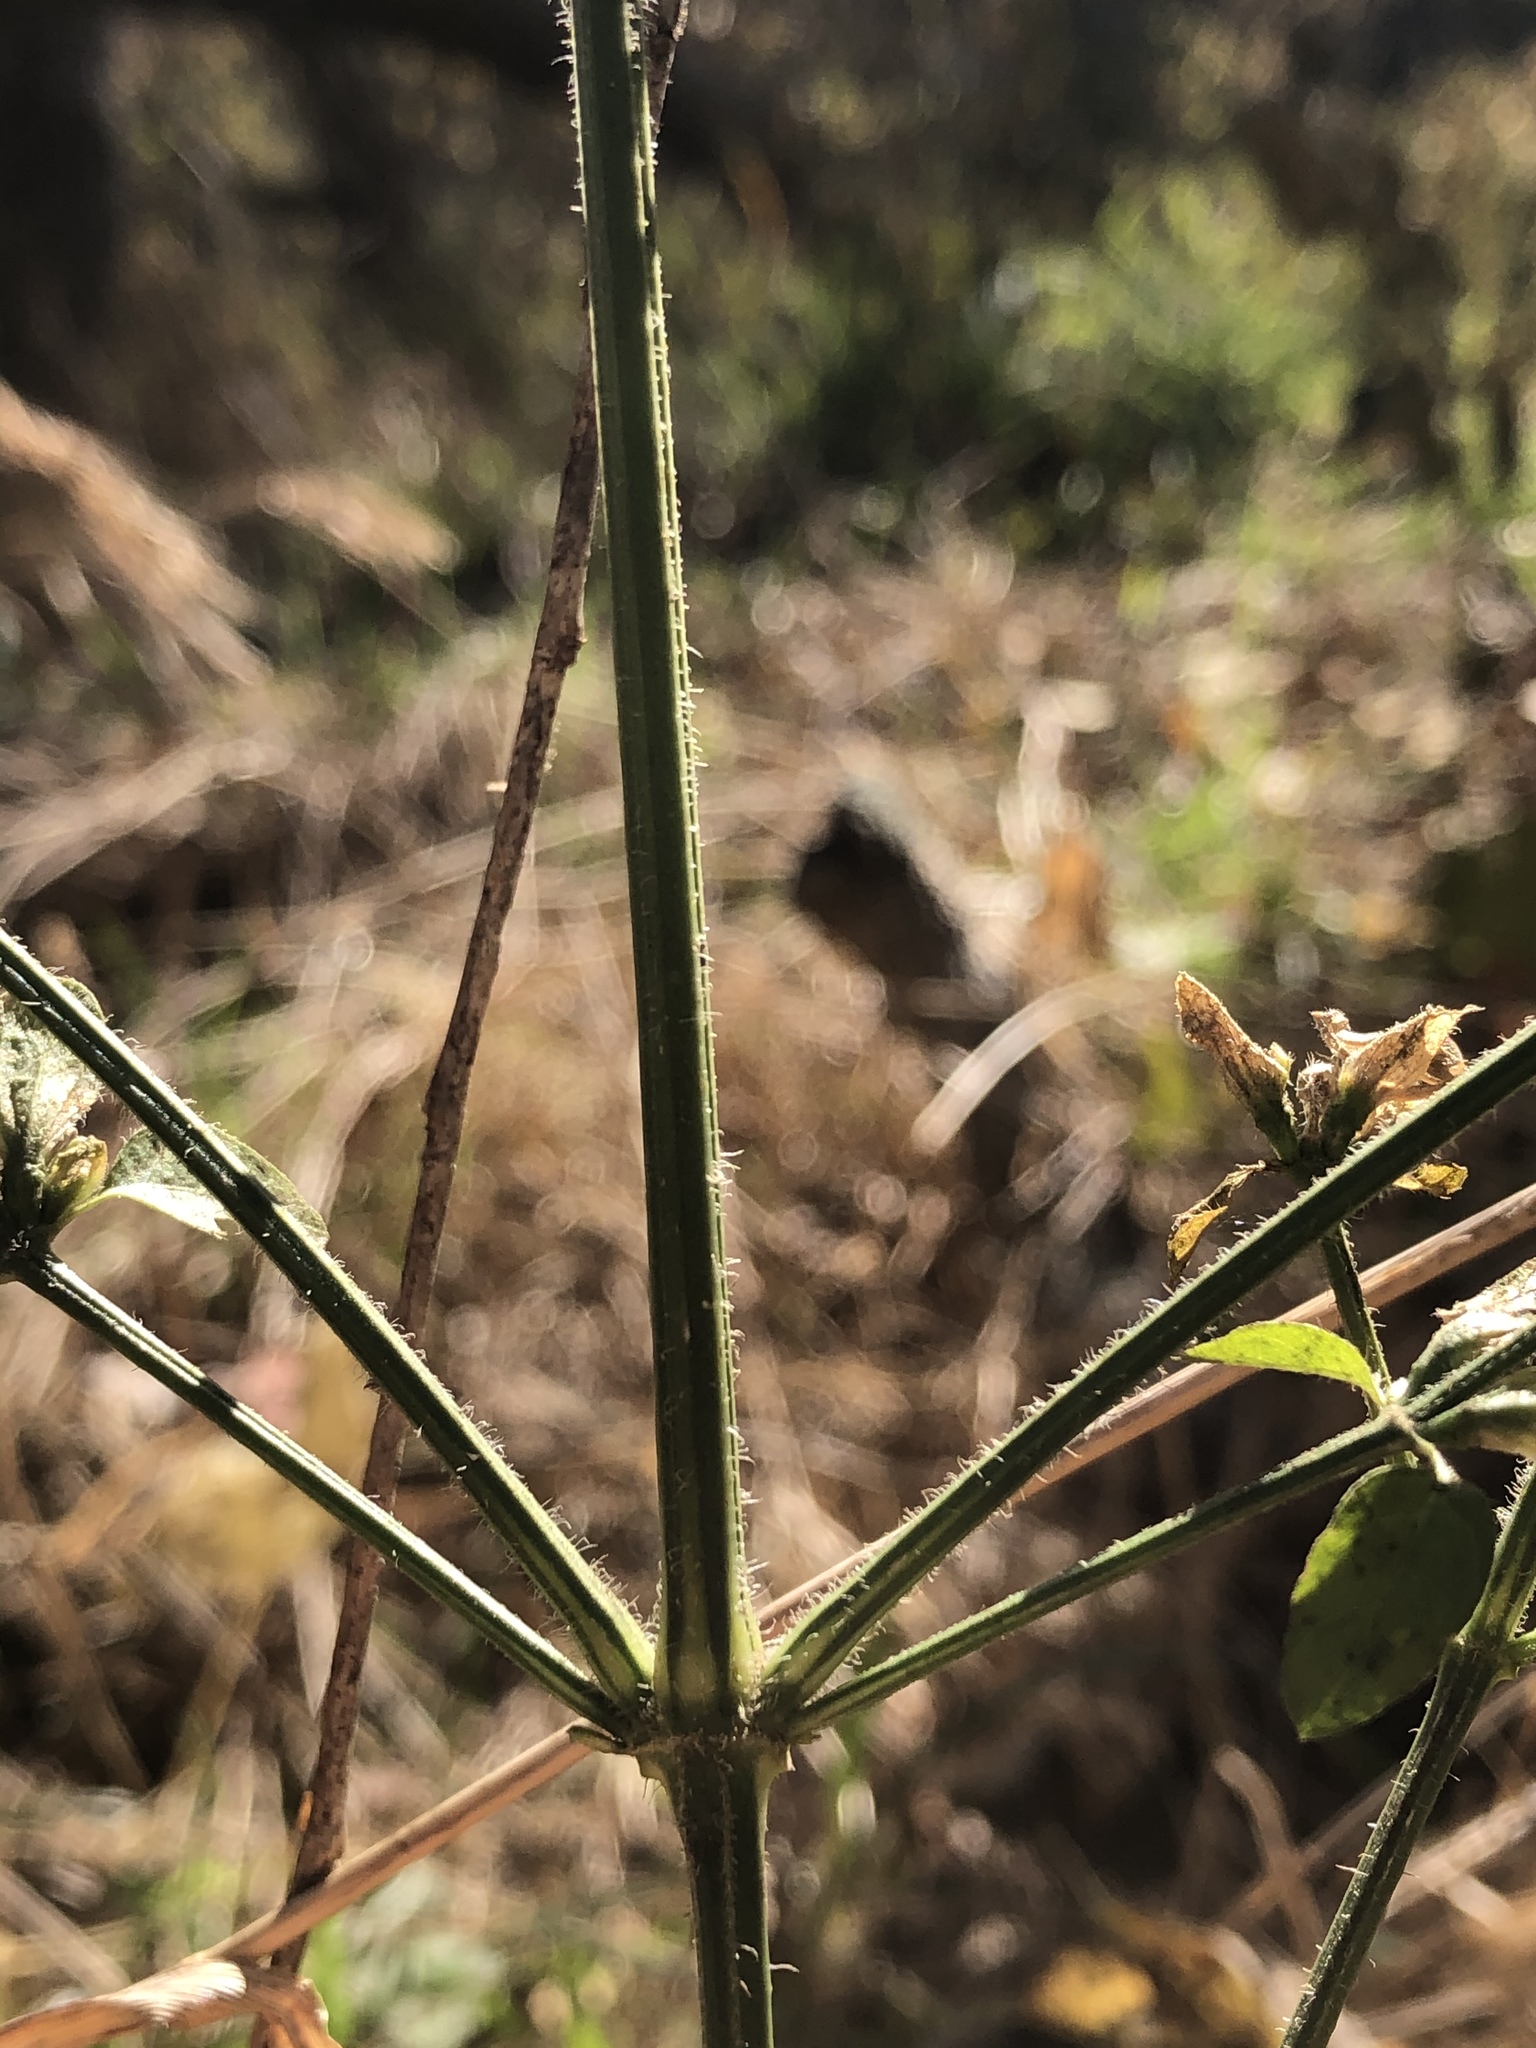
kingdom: Plantae
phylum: Tracheophyta
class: Magnoliopsida
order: Lamiales
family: Acanthaceae
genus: Dicliptera
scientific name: Dicliptera brachiata
